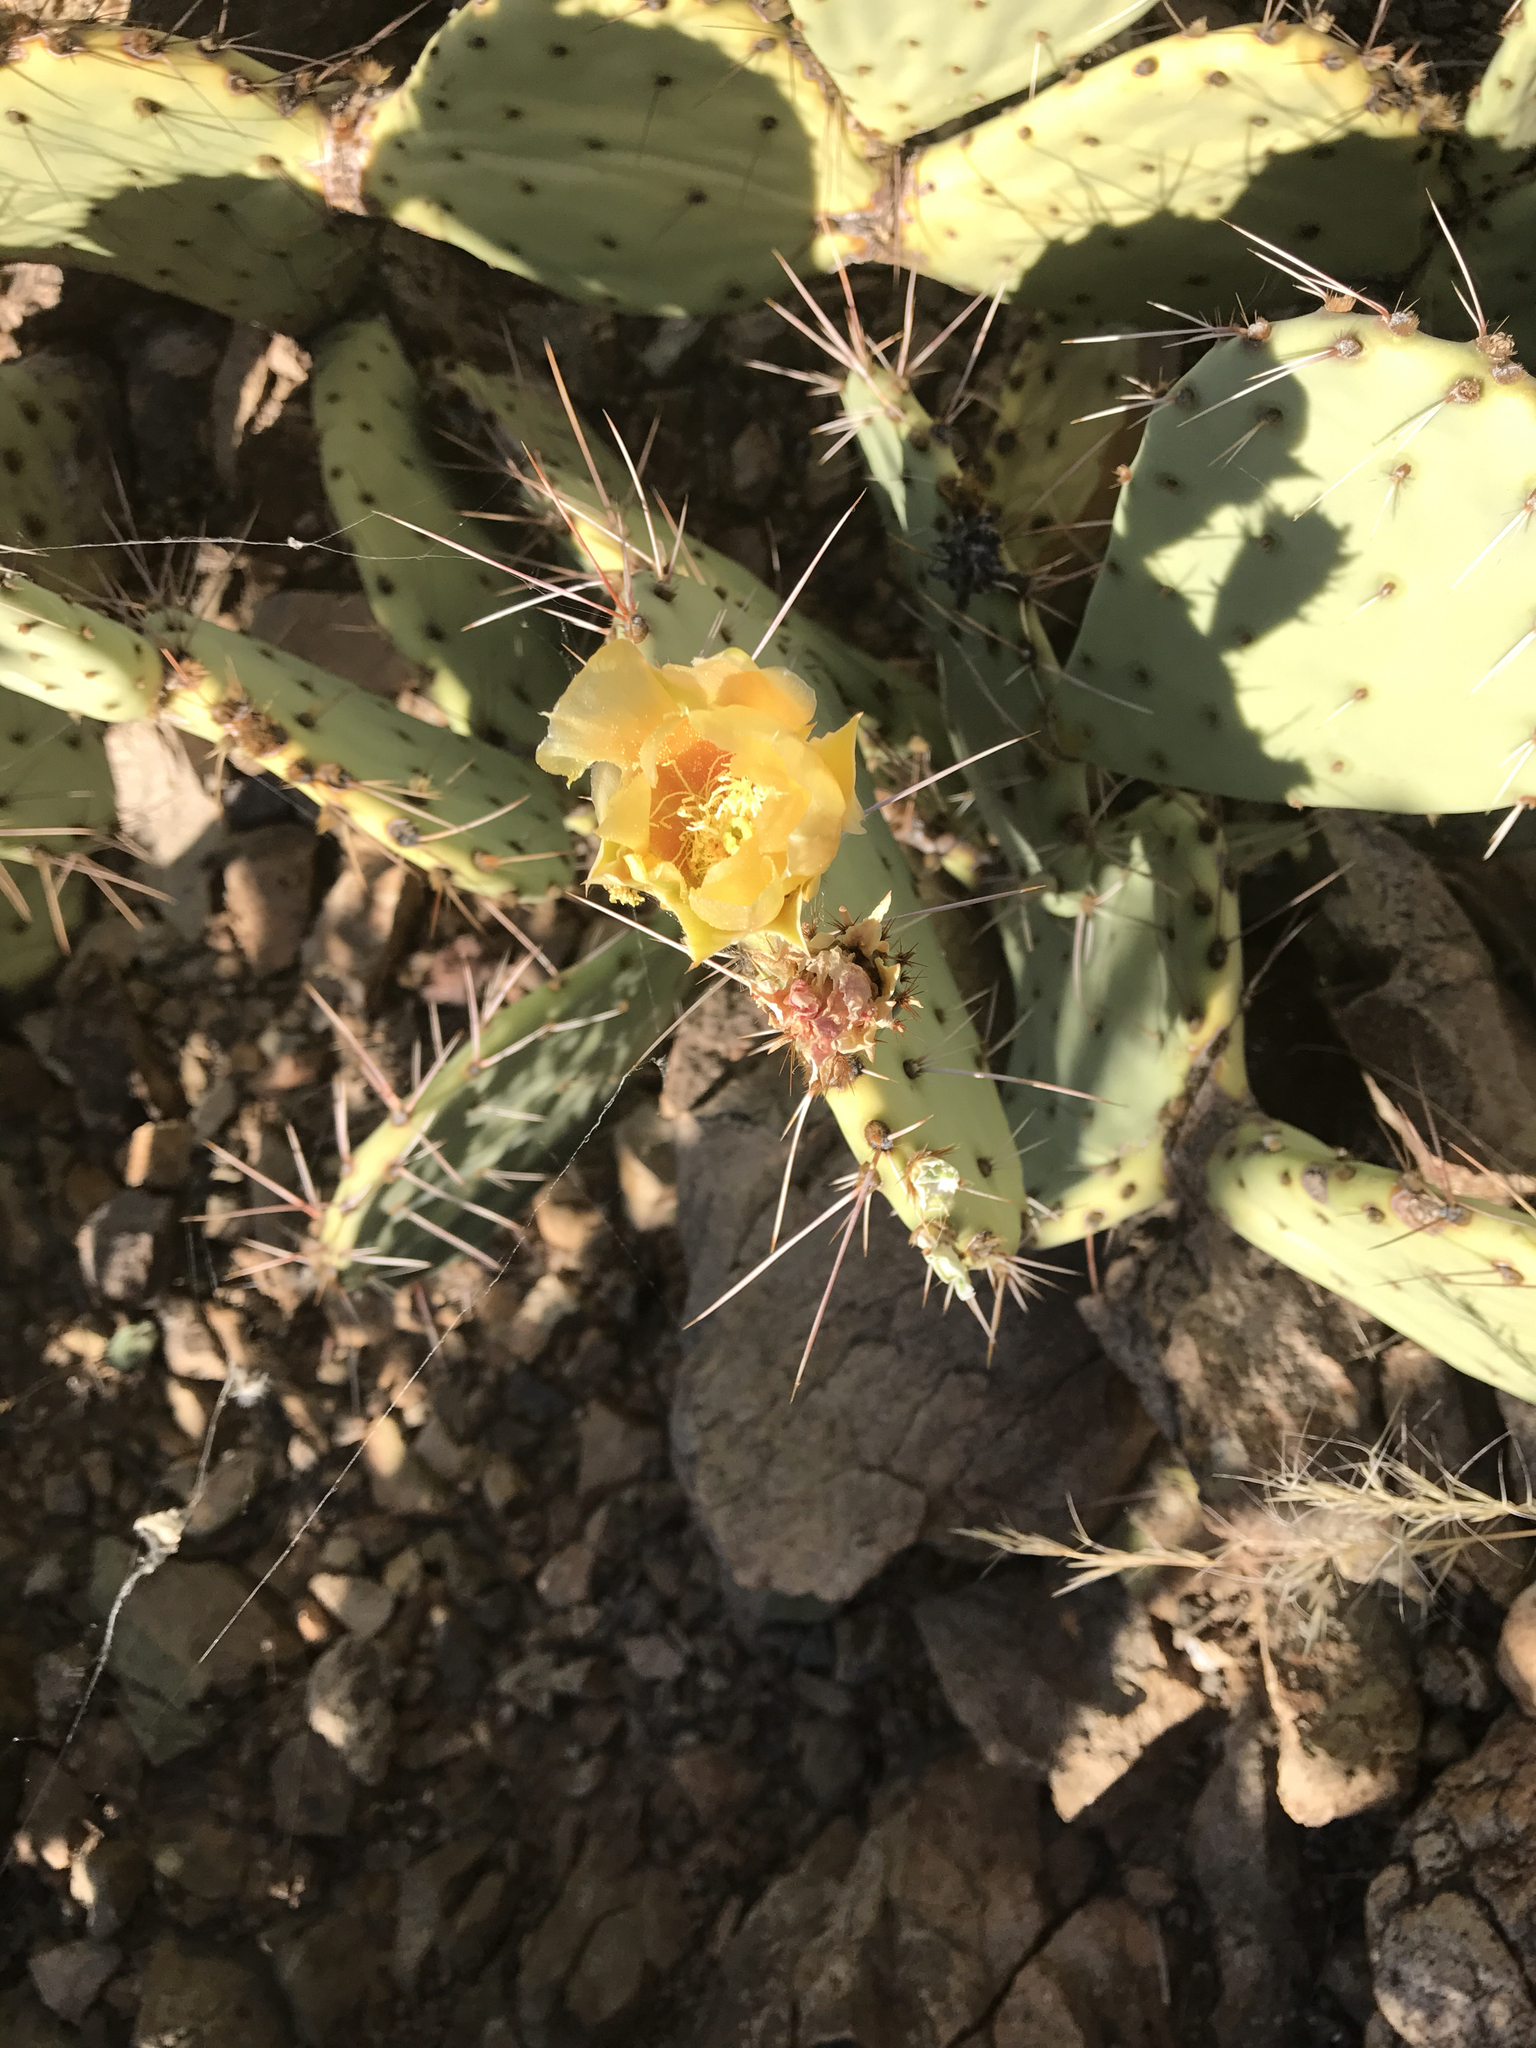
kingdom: Plantae
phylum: Tracheophyta
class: Magnoliopsida
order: Caryophyllales
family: Cactaceae
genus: Opuntia
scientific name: Opuntia engelmannii
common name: Cactus-apple
